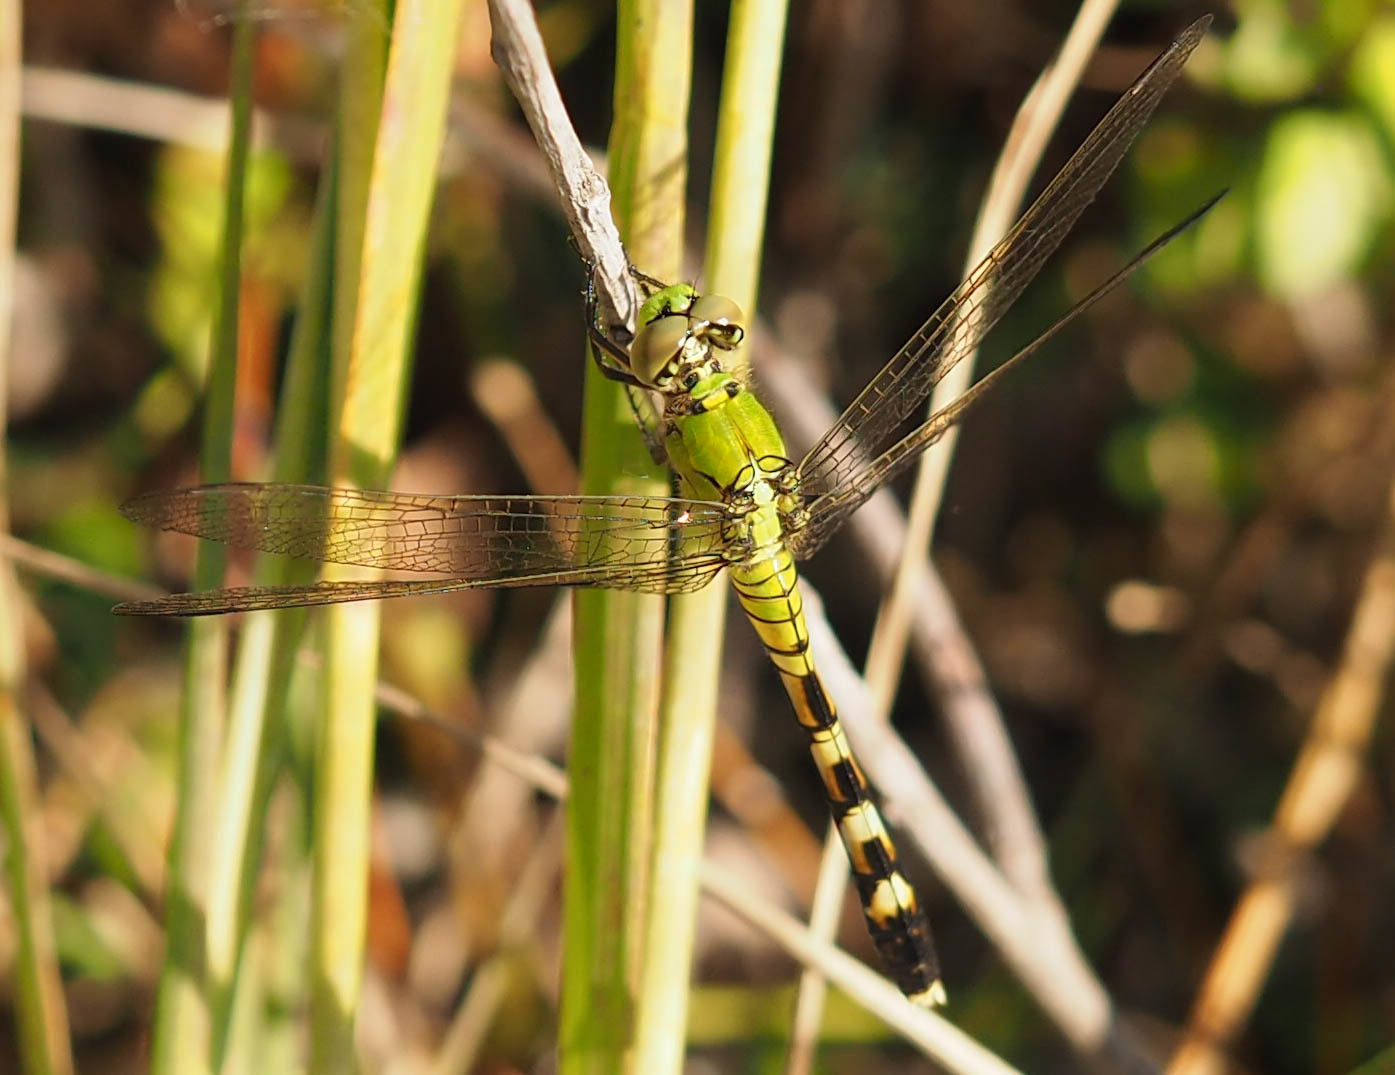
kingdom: Animalia
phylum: Arthropoda
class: Insecta
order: Odonata
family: Libellulidae
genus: Erythemis
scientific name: Erythemis simplicicollis
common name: Eastern pondhawk
